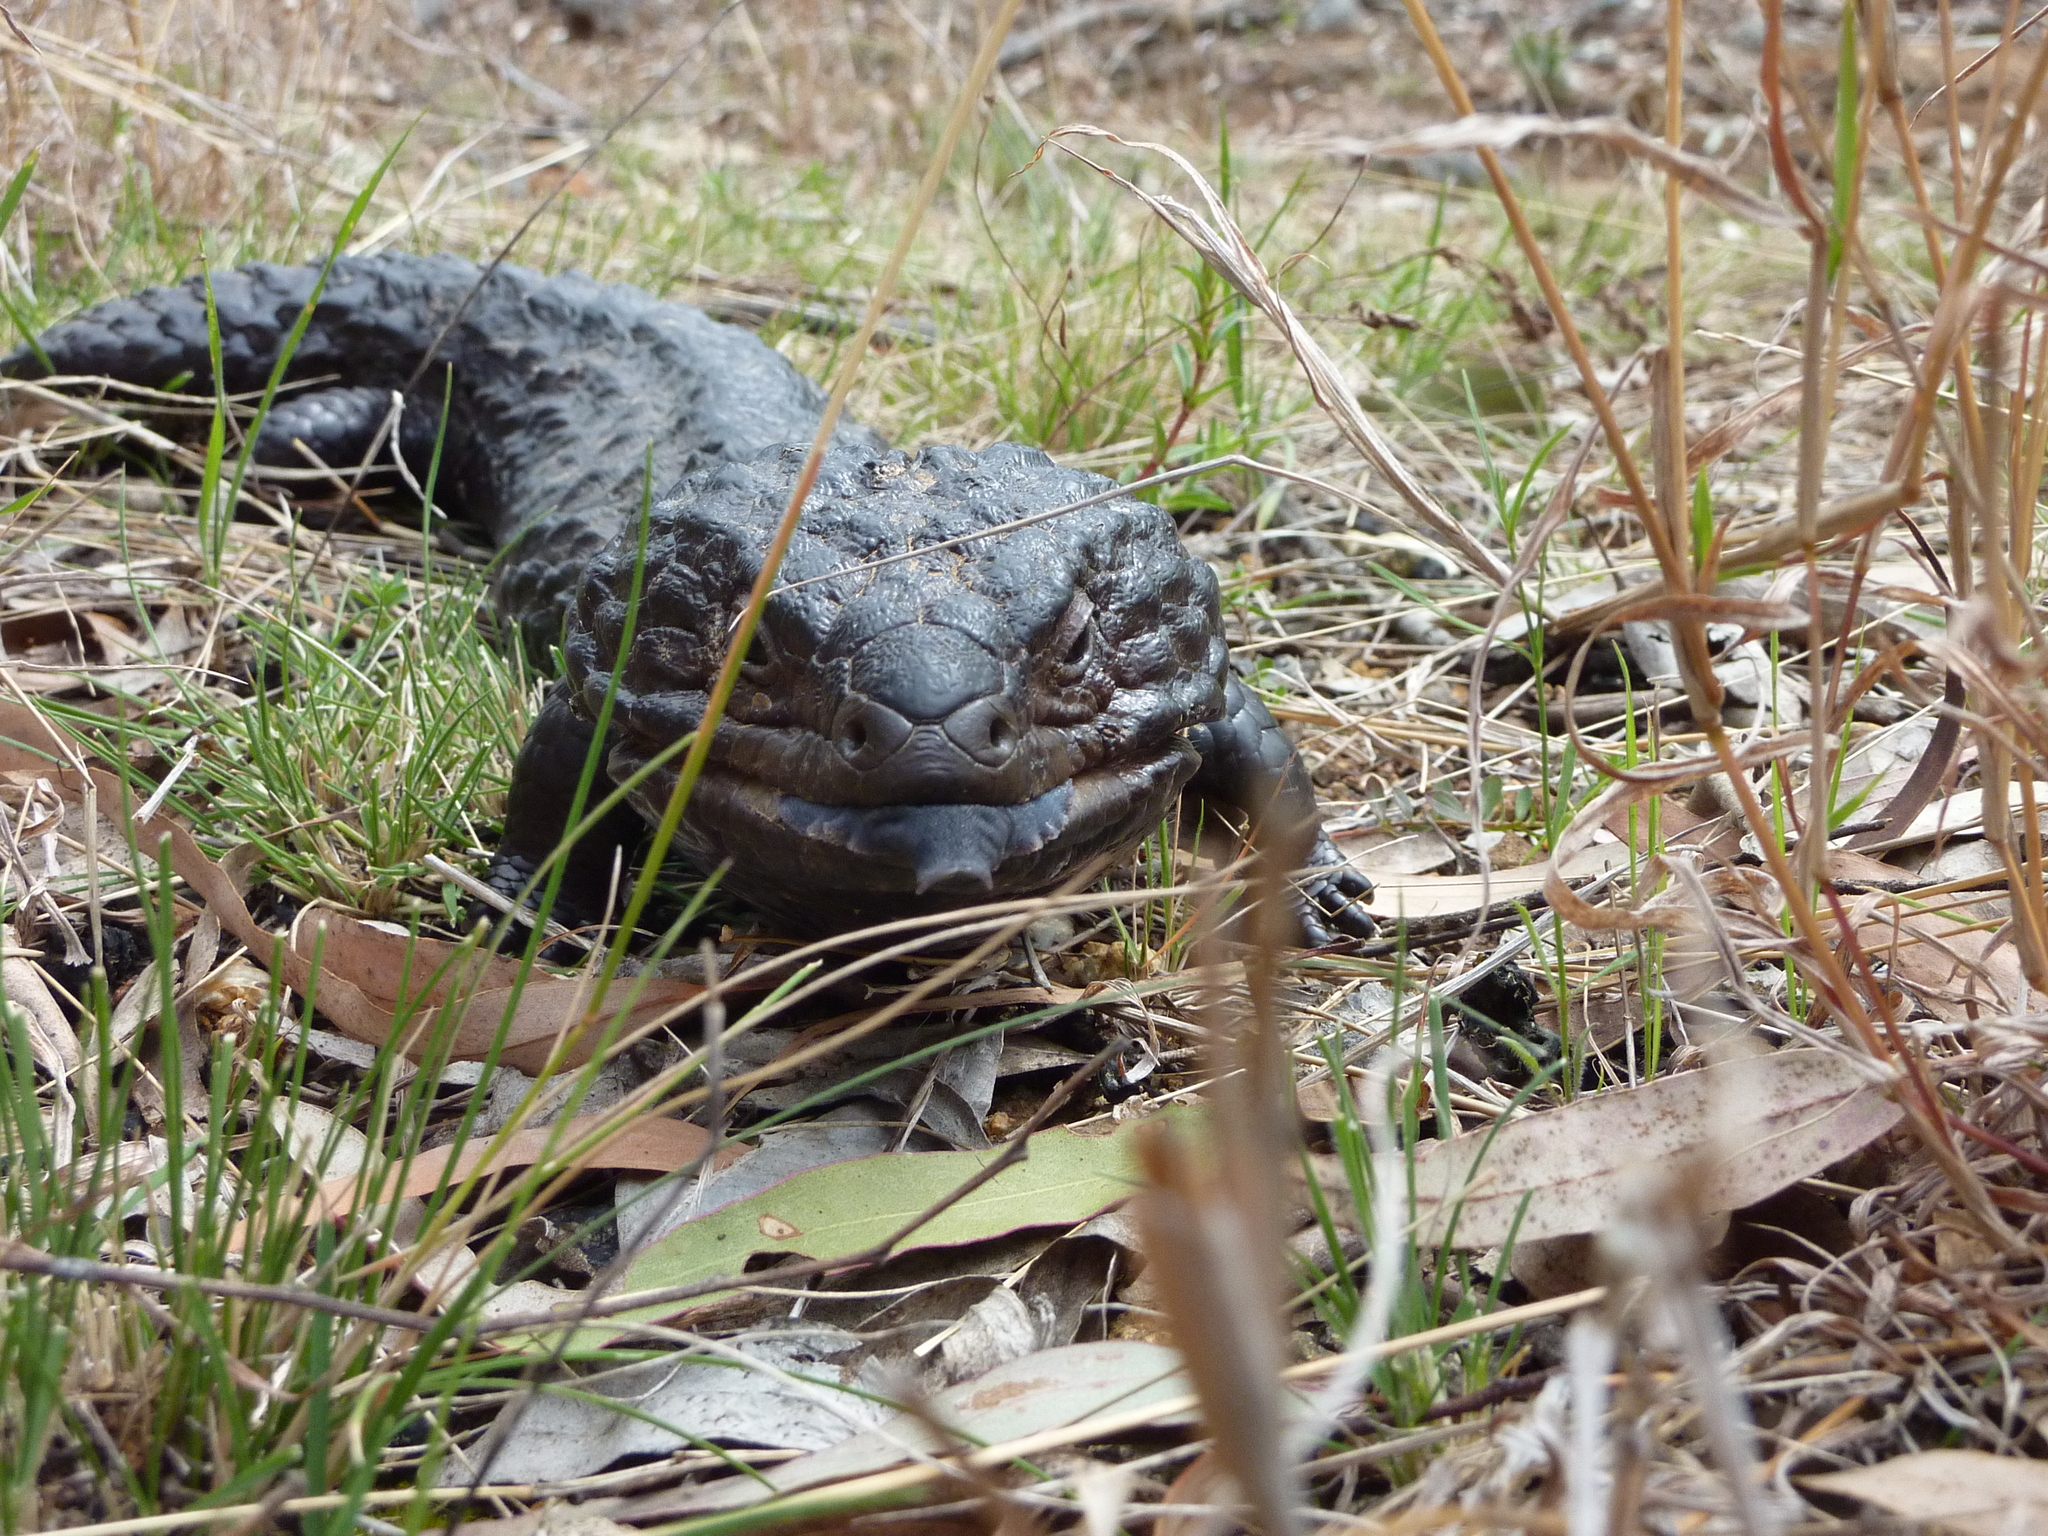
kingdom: Animalia
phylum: Chordata
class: Squamata
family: Scincidae
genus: Tiliqua
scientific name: Tiliqua rugosa
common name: Pinecone lizard
